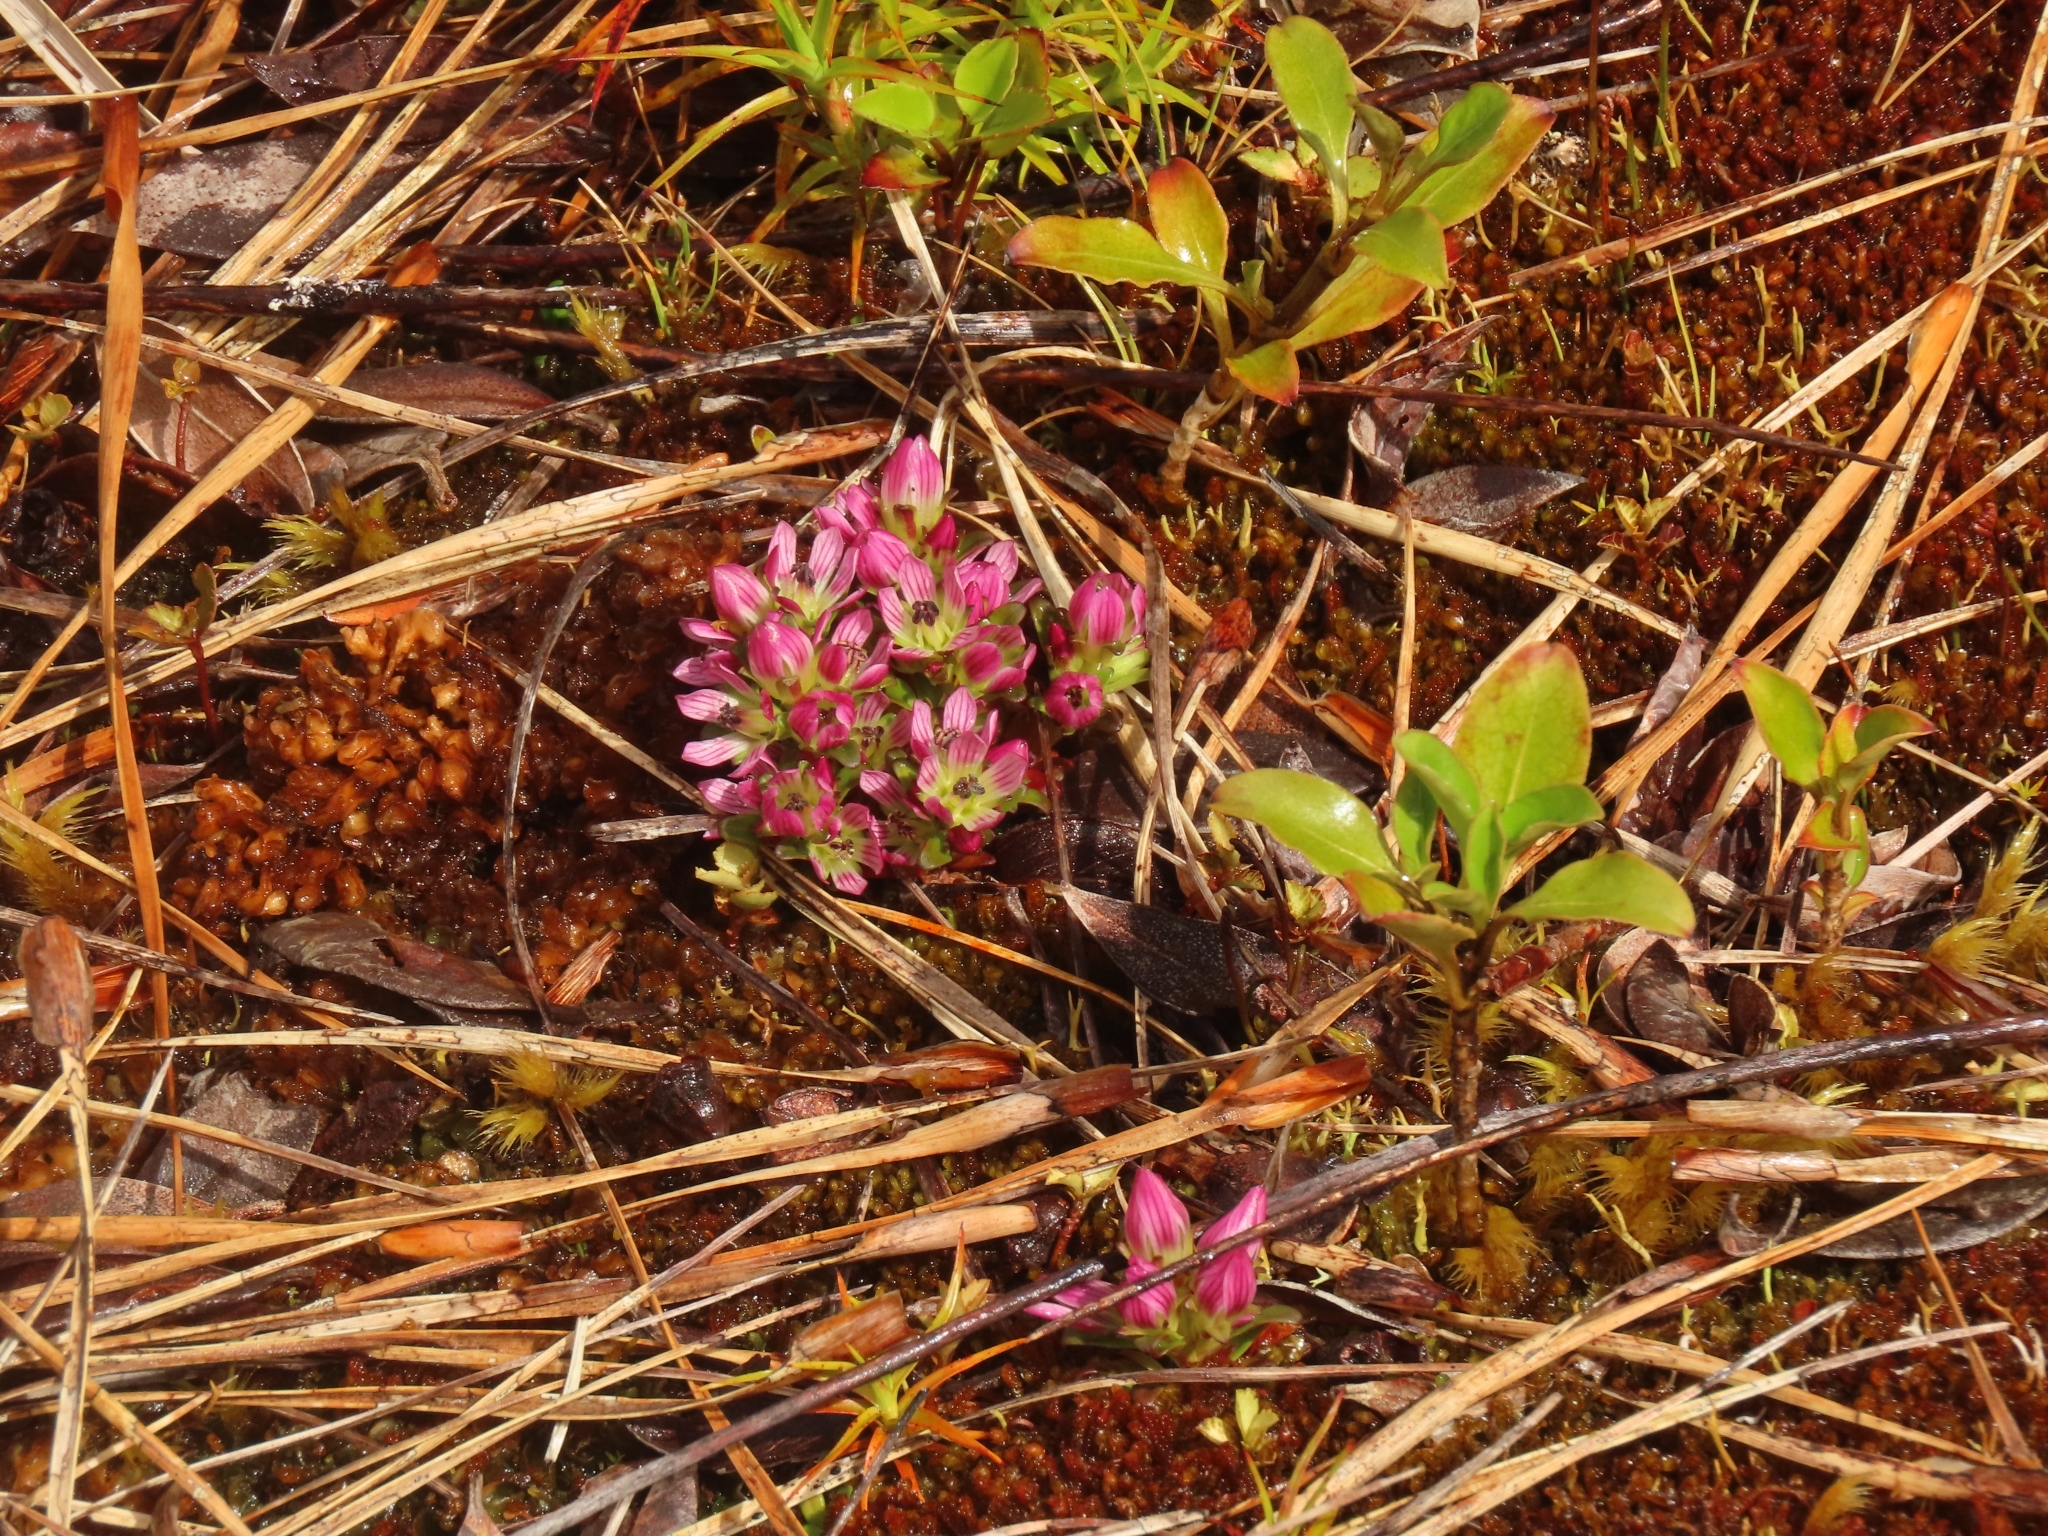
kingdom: Plantae
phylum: Tracheophyta
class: Magnoliopsida
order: Gentianales
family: Gentianaceae
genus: Gentianella
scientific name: Gentianella concinna
